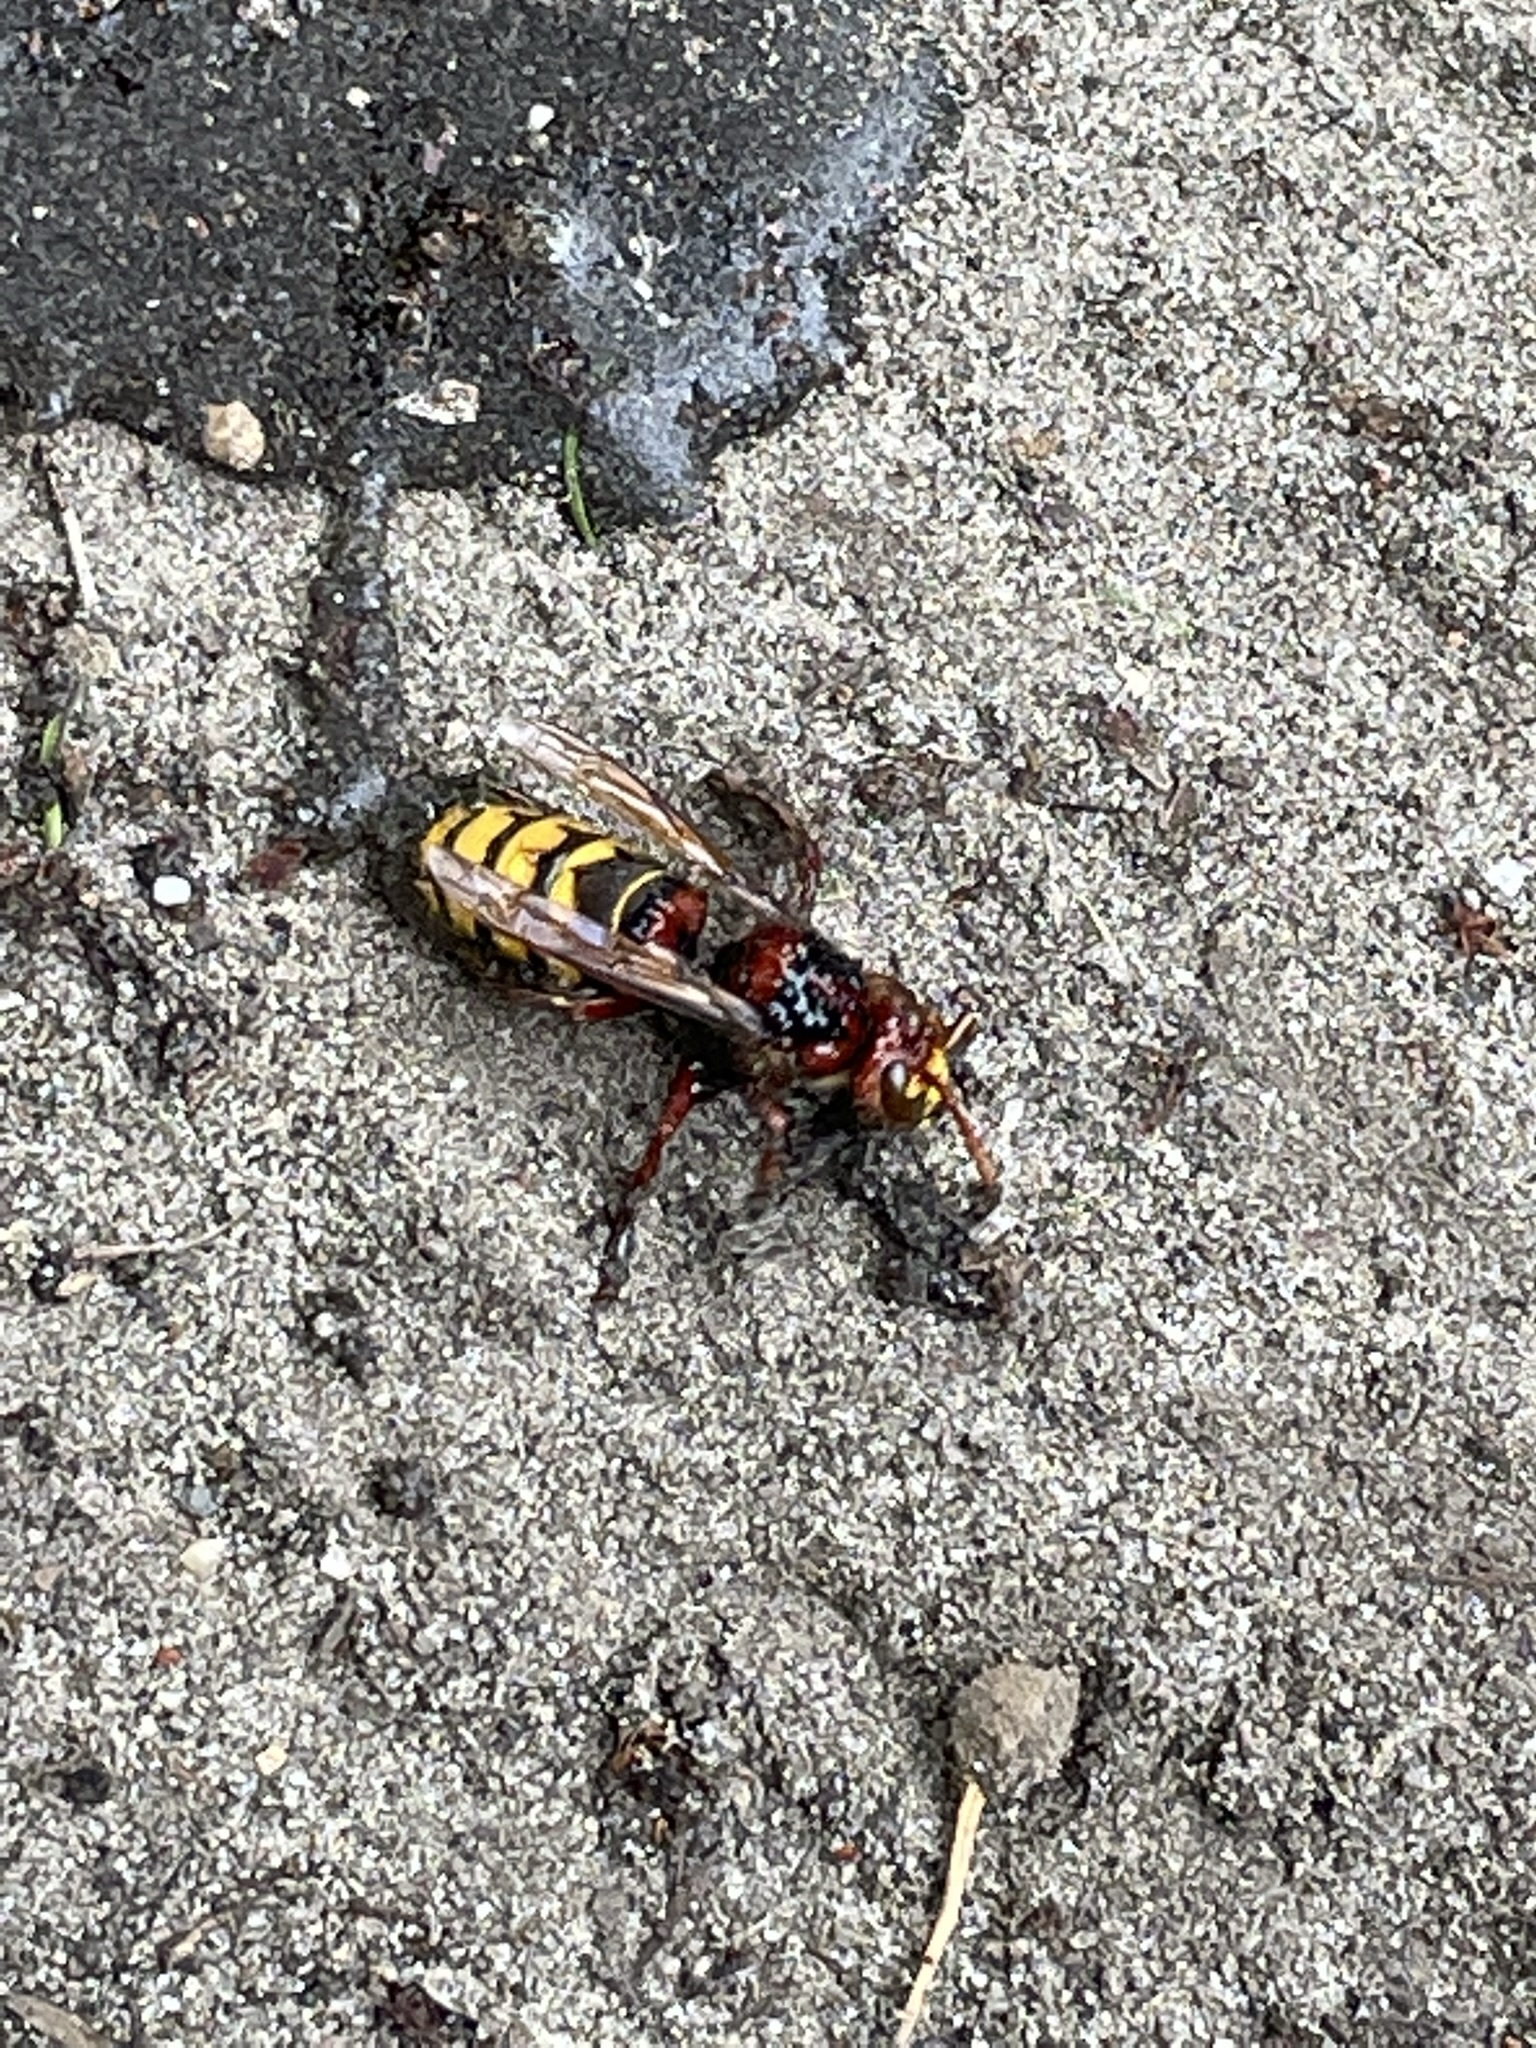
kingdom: Animalia
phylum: Arthropoda
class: Insecta
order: Hymenoptera
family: Vespidae
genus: Vespa
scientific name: Vespa crabro
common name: Hornet
